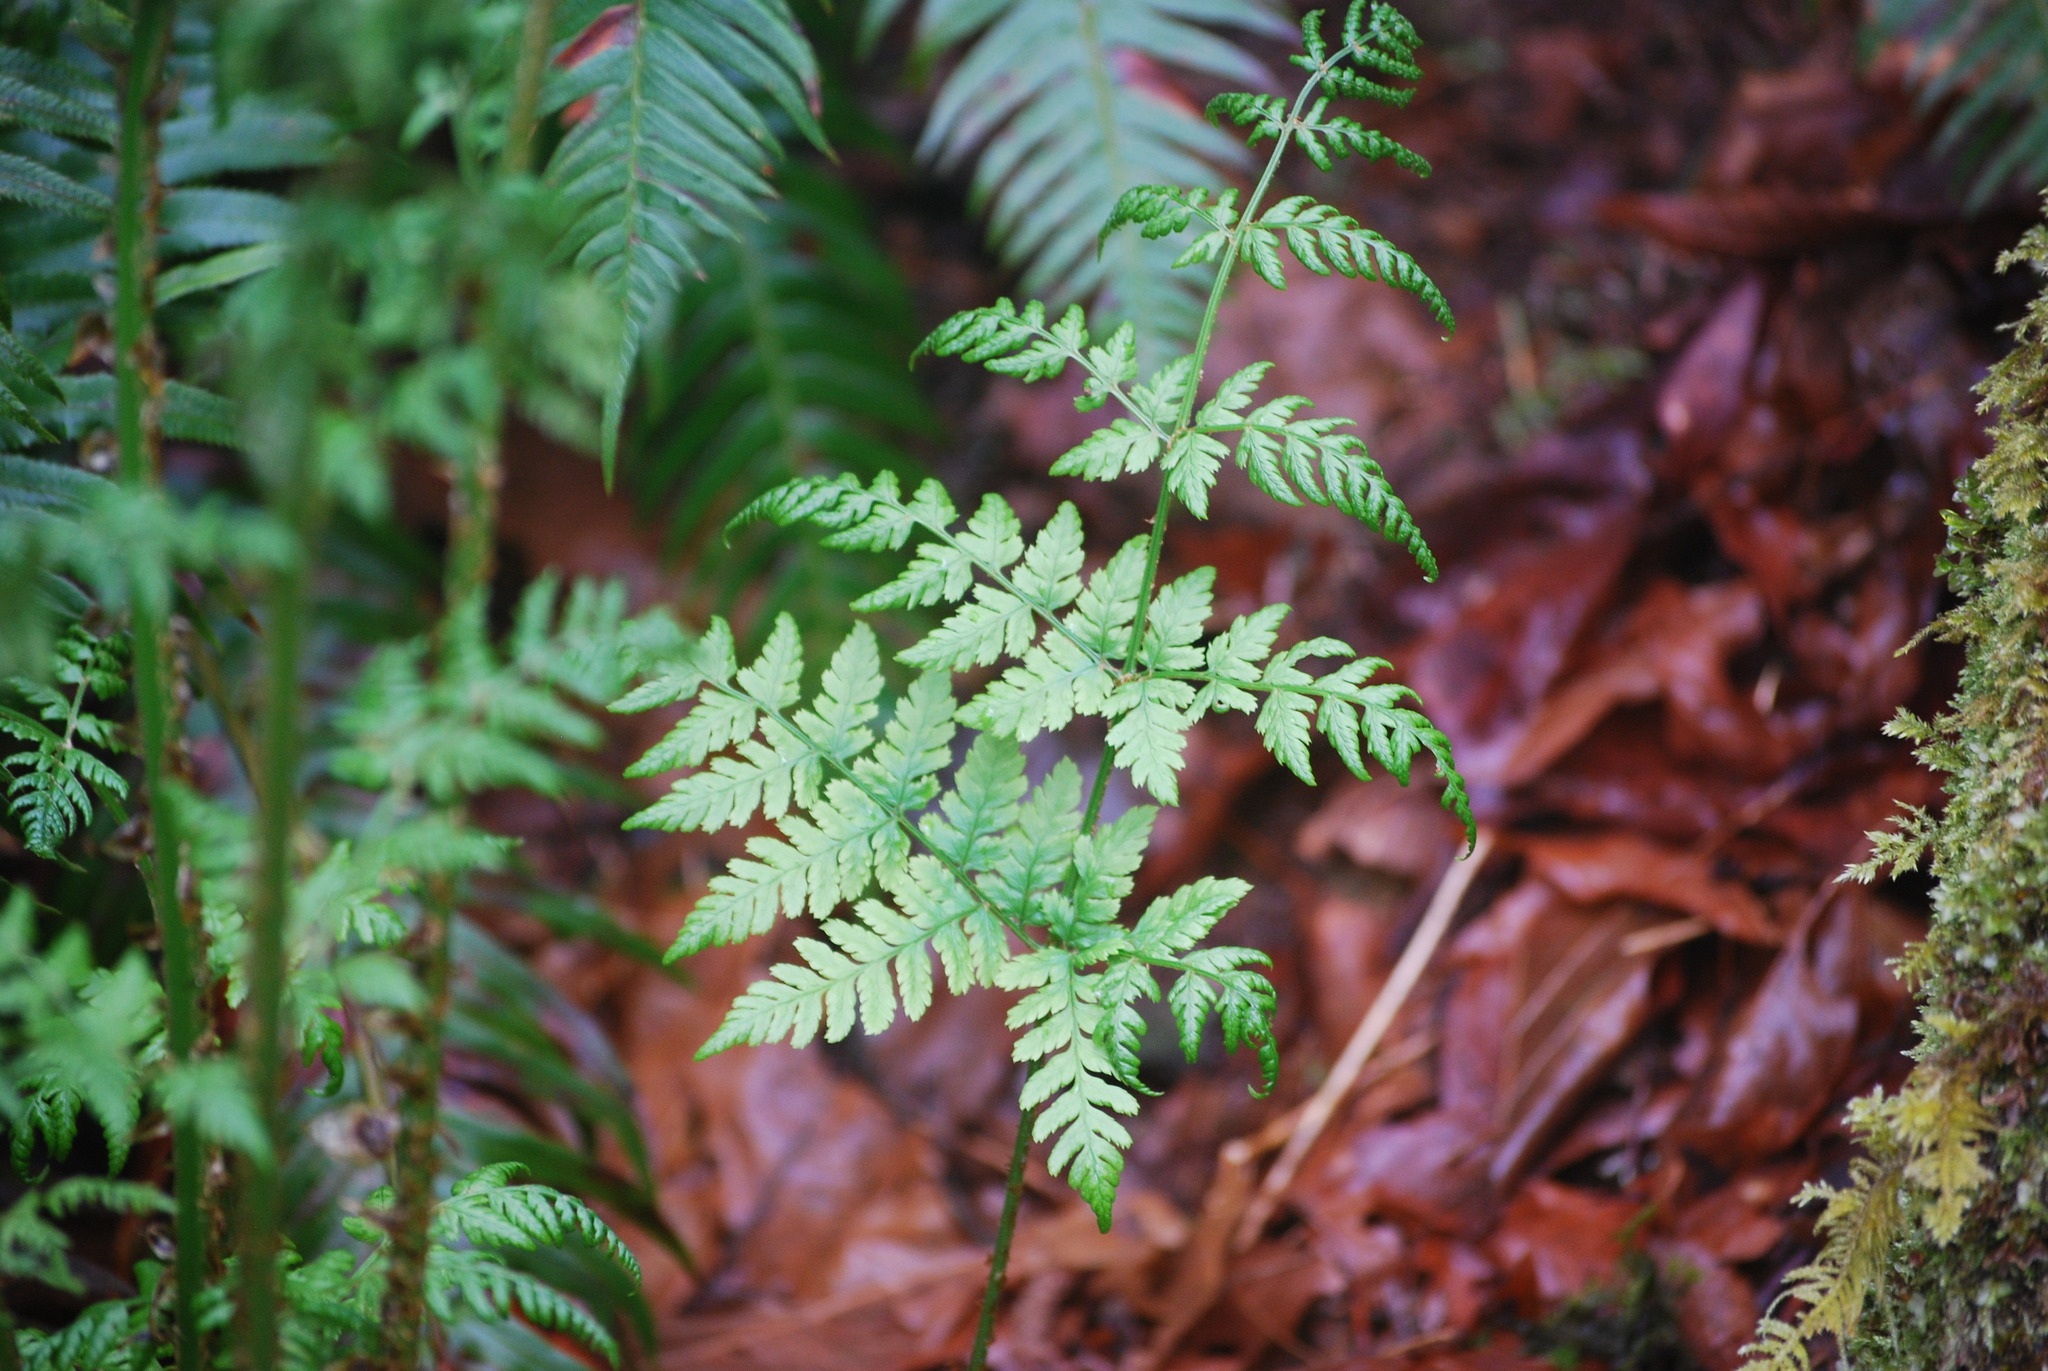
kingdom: Plantae
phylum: Tracheophyta
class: Polypodiopsida
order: Polypodiales
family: Dryopteridaceae
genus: Dryopteris
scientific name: Dryopteris expansa
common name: Northern buckler fern
